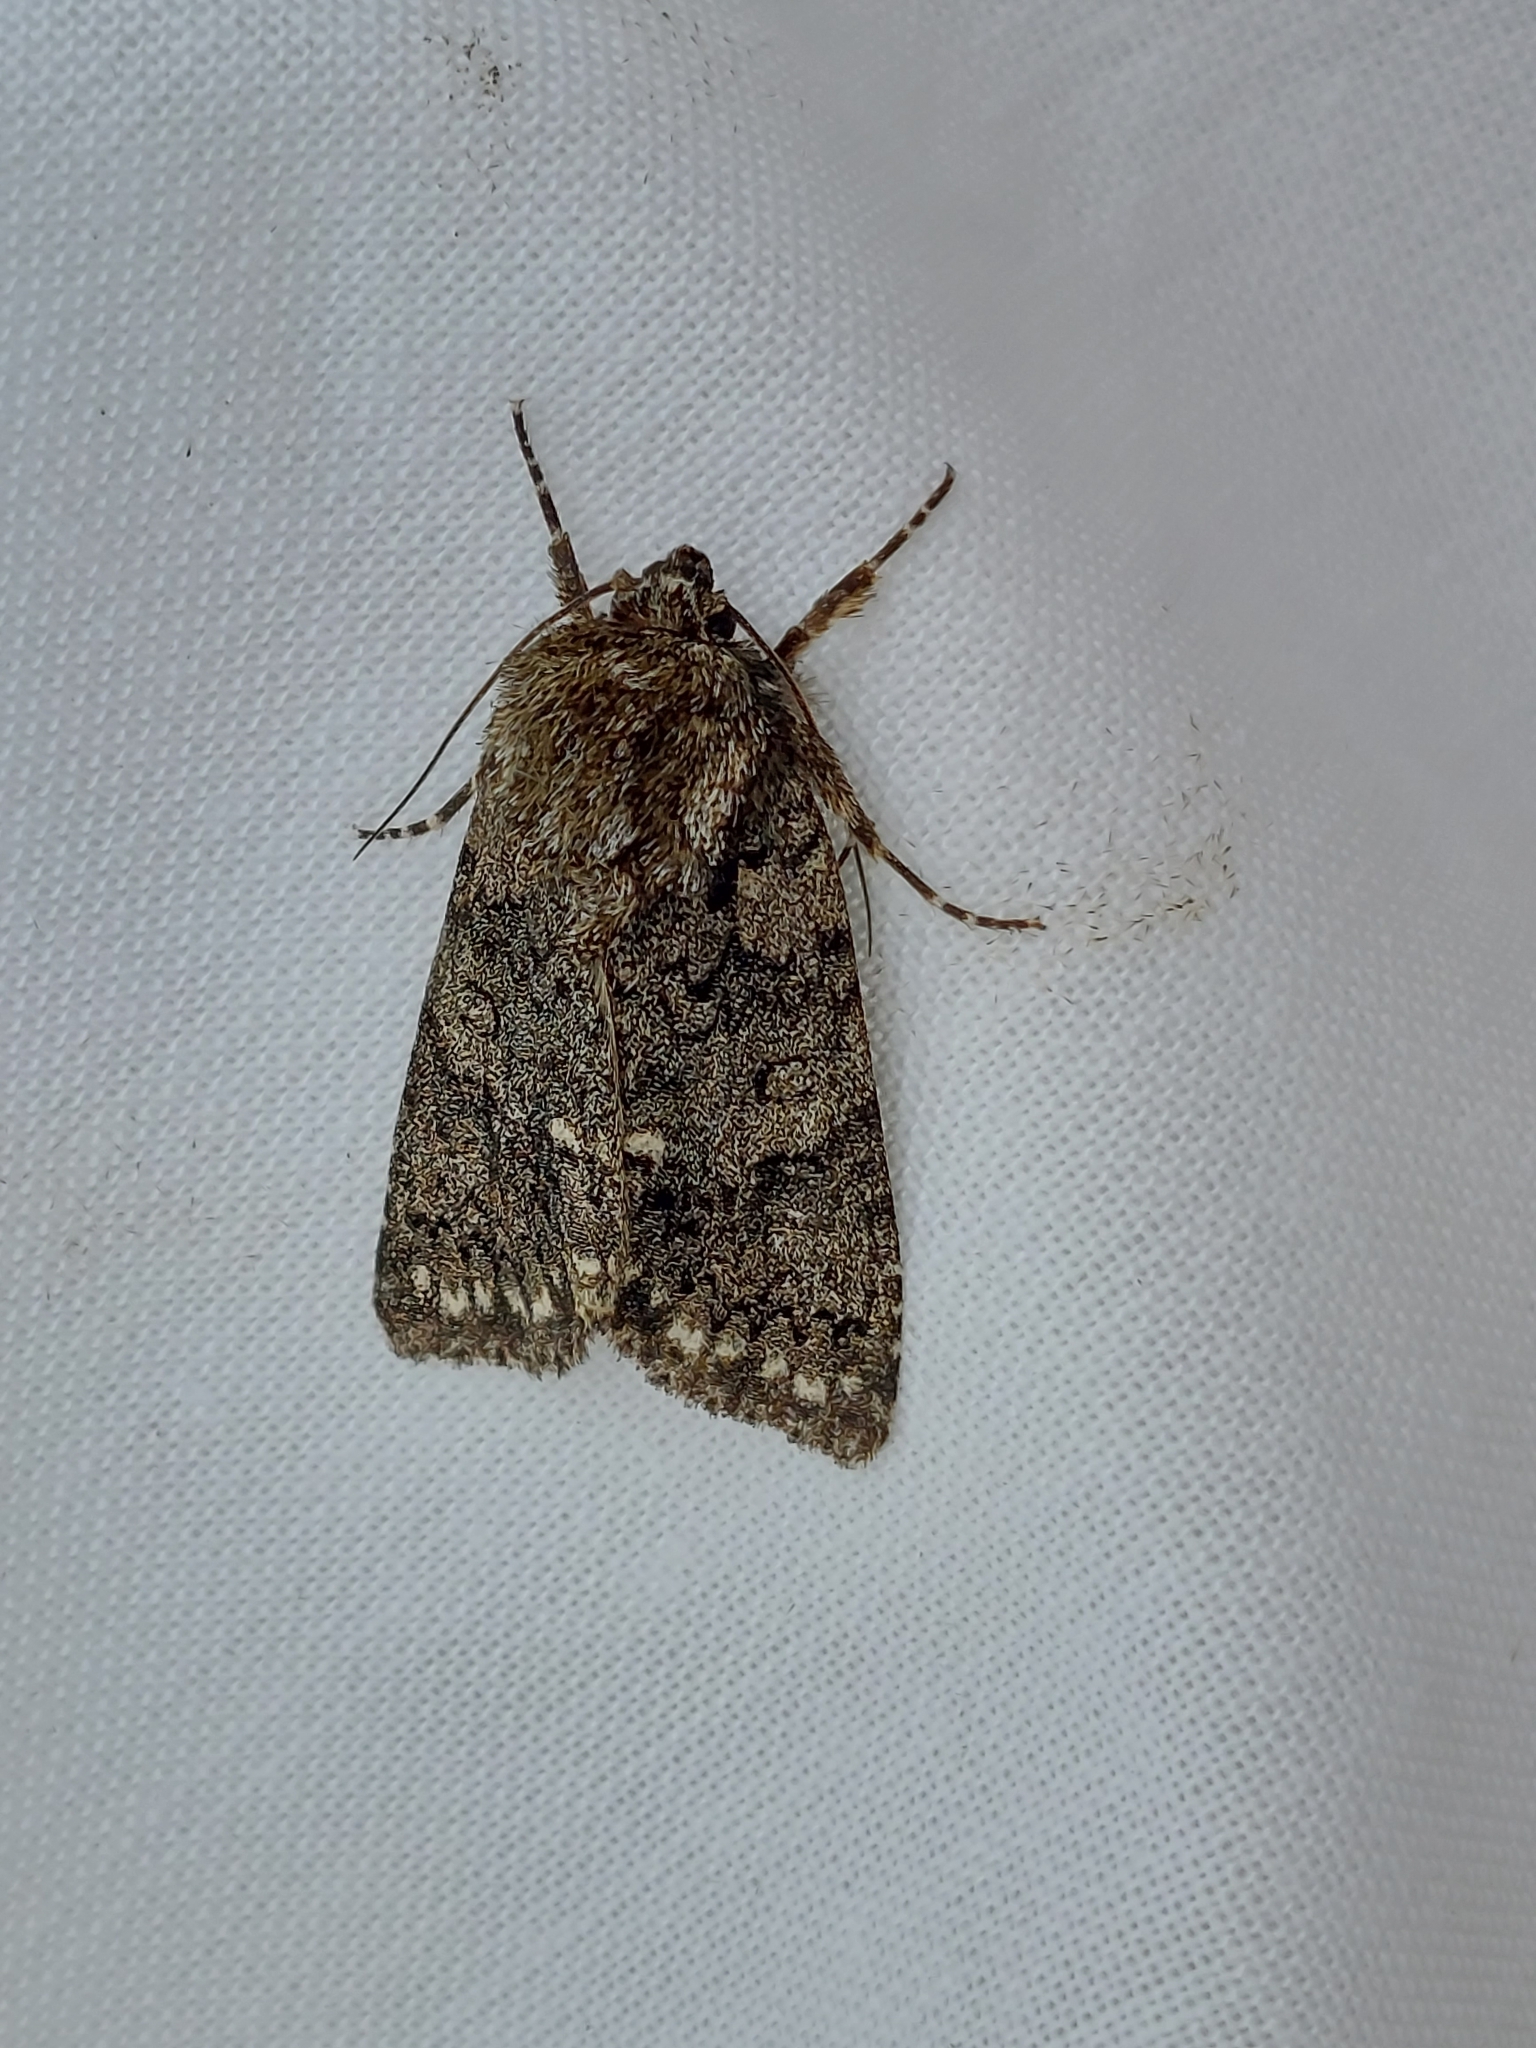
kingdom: Animalia
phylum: Arthropoda
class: Insecta
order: Lepidoptera
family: Noctuidae
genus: Acronicta
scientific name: Acronicta rumicis
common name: Knot grass
